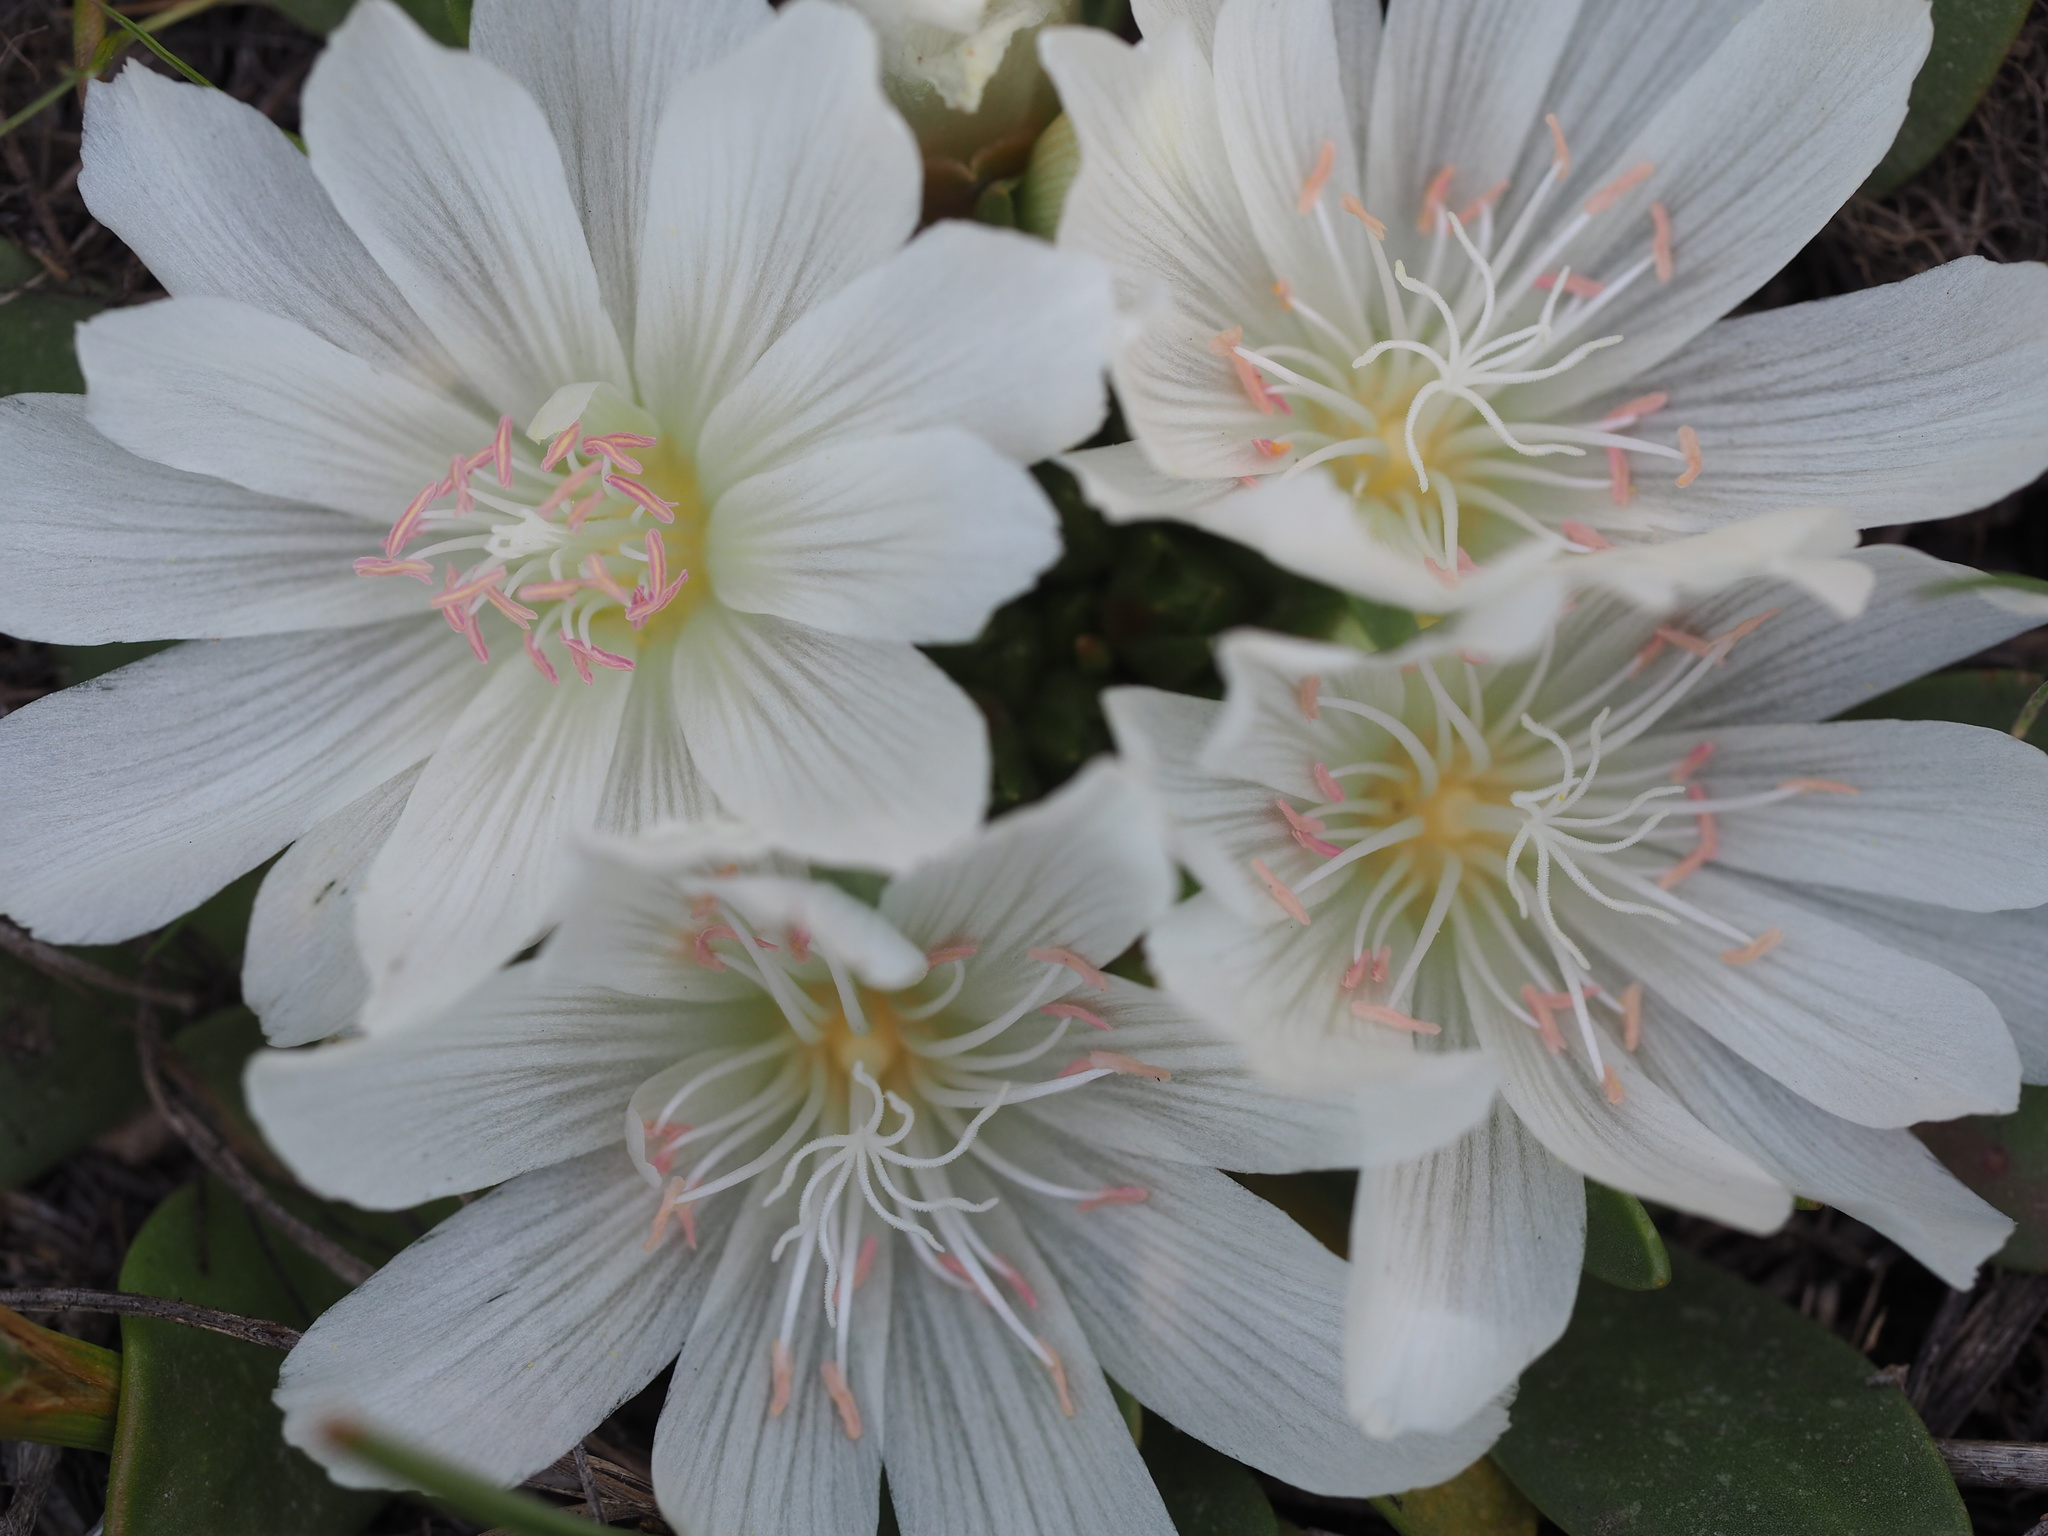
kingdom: Plantae
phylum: Tracheophyta
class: Magnoliopsida
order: Caryophyllales
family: Montiaceae
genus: Lewisia
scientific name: Lewisia brachycalyx
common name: Short-sepal lewisia
